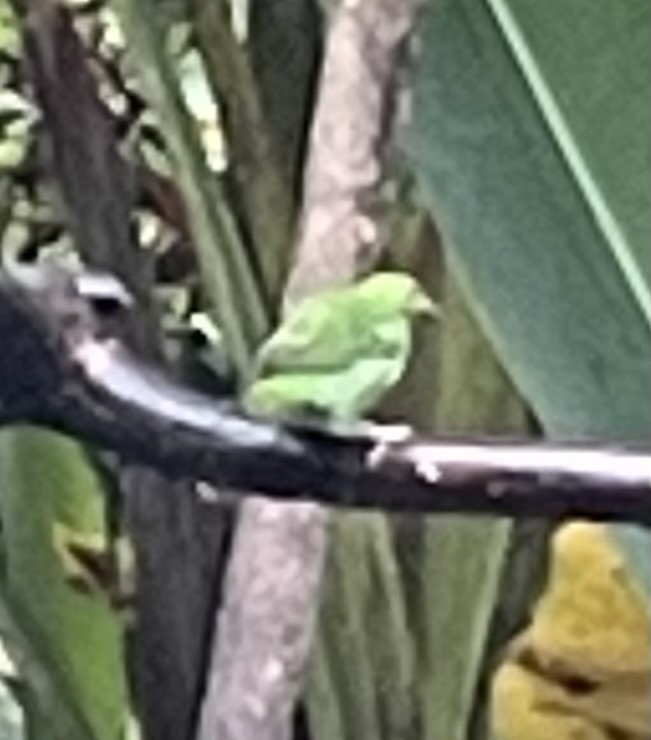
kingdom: Animalia
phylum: Chordata
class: Aves
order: Passeriformes
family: Thraupidae
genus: Chlorophanes
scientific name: Chlorophanes spiza
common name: Green honeycreeper
